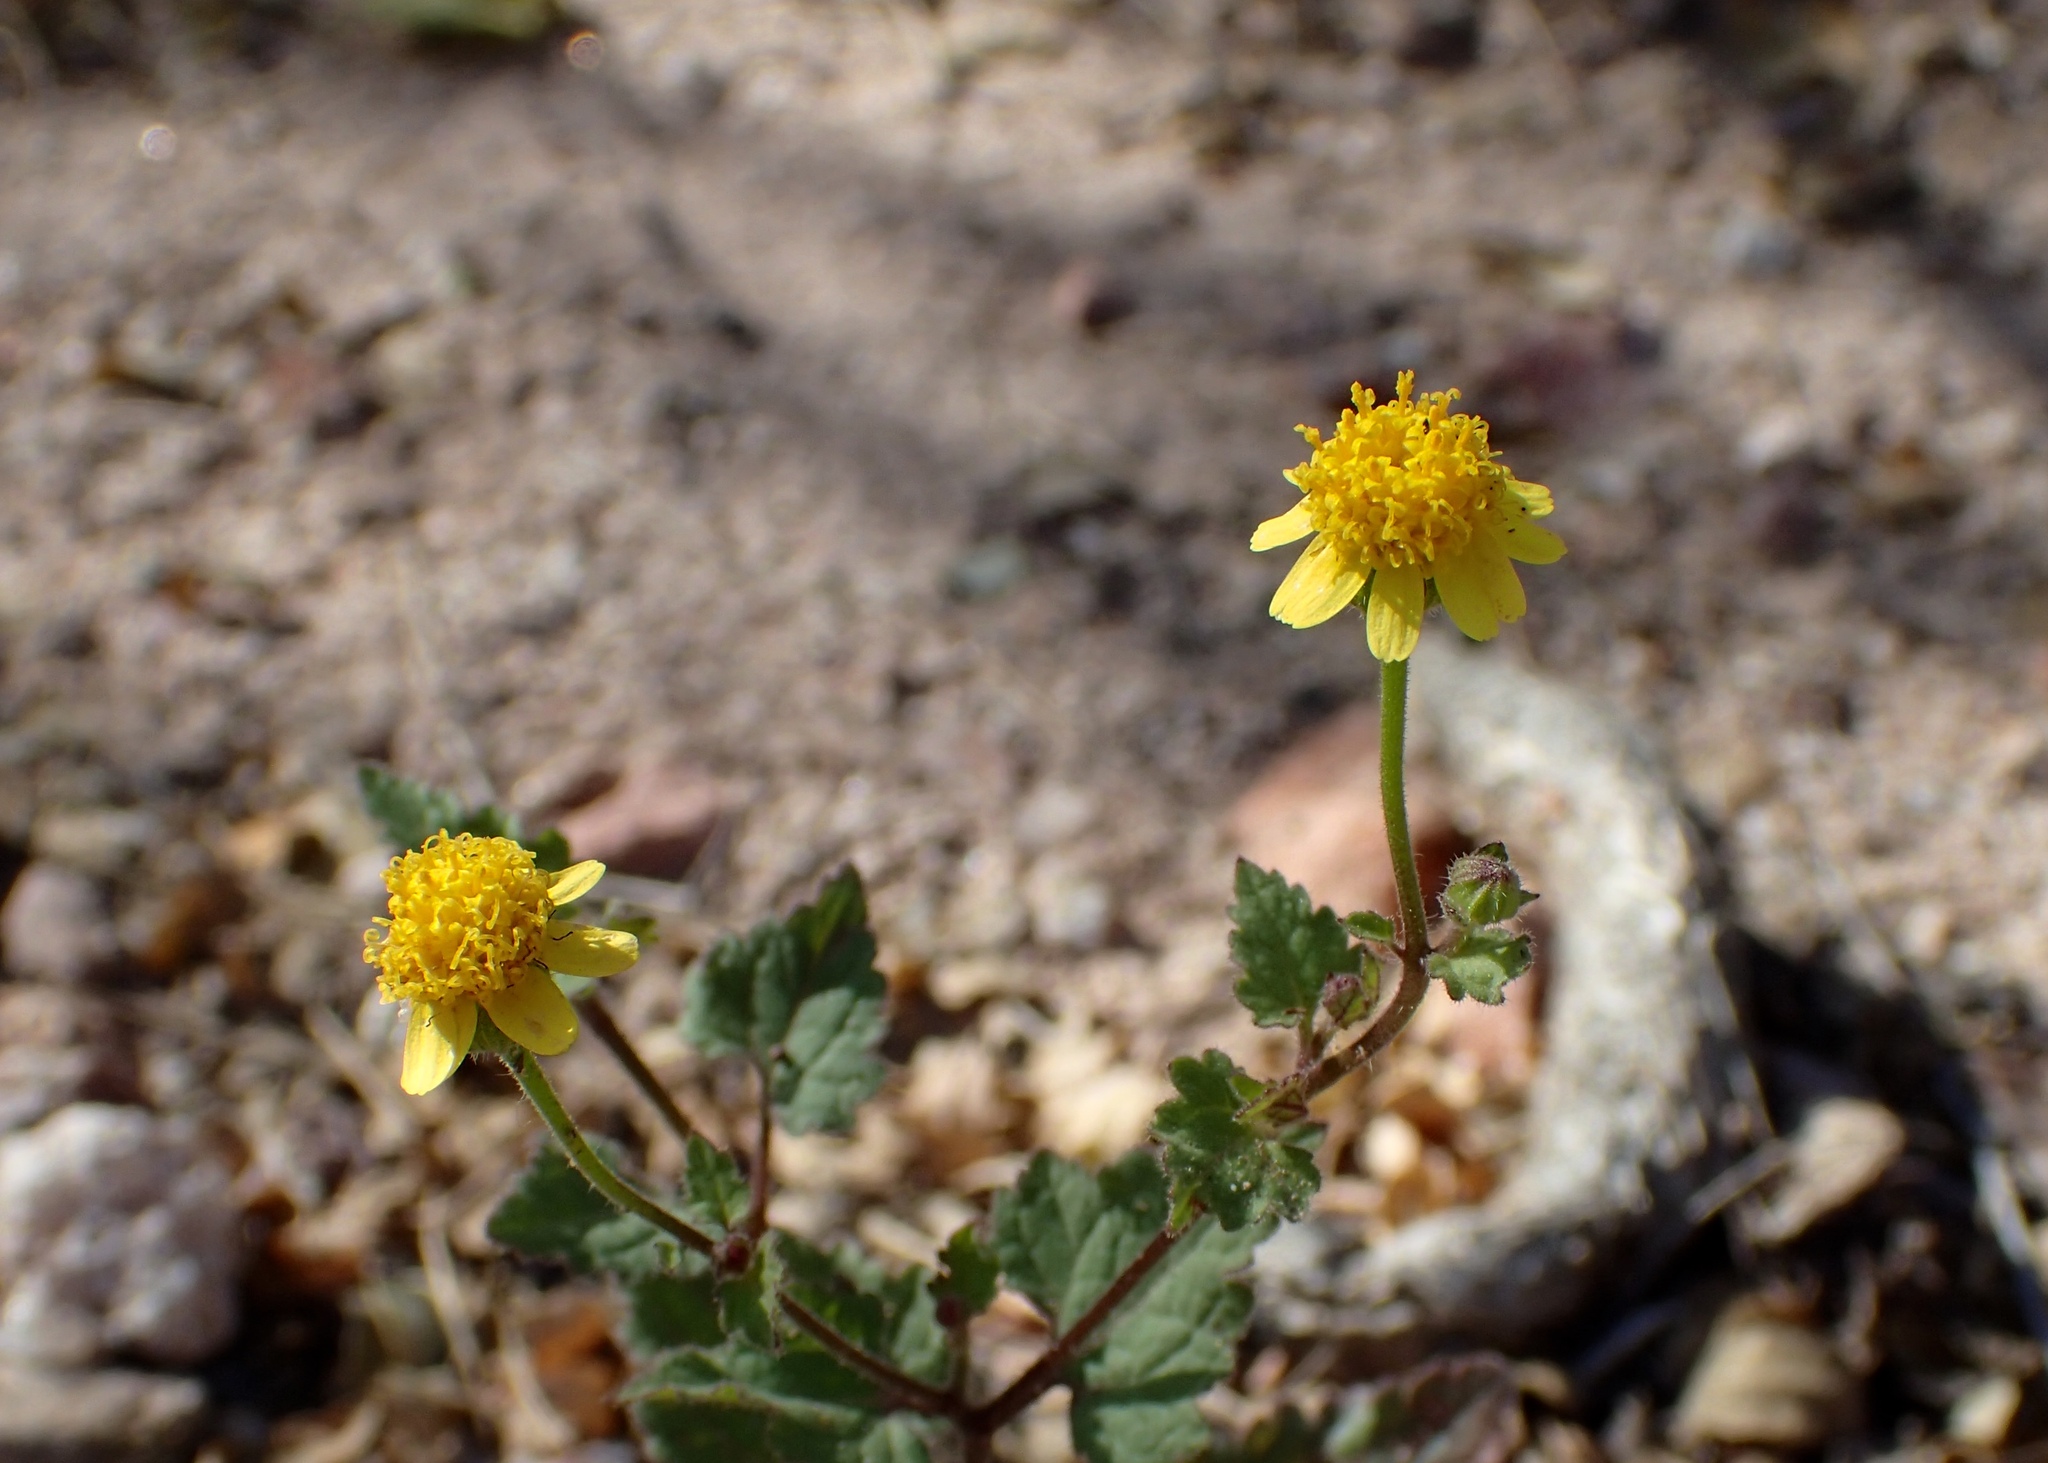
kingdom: Plantae
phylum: Tracheophyta
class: Magnoliopsida
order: Asterales
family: Asteraceae
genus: Perityle
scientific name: Perityle californica
